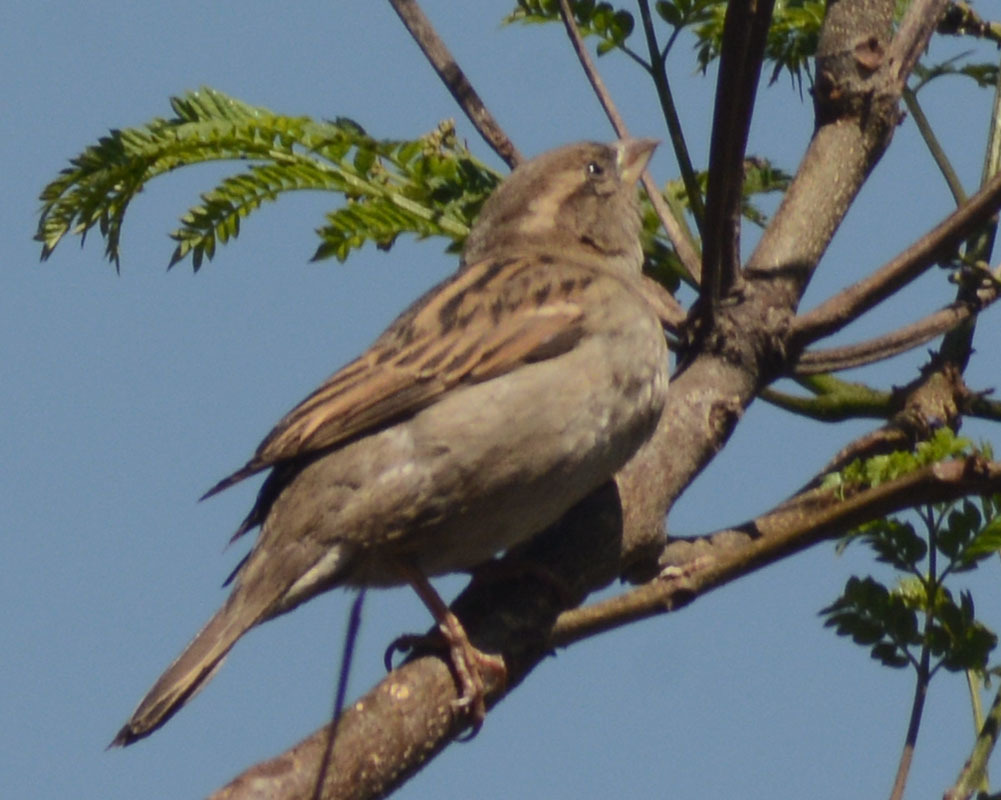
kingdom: Animalia
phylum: Chordata
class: Aves
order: Passeriformes
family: Passeridae
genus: Passer
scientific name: Passer domesticus
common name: House sparrow
